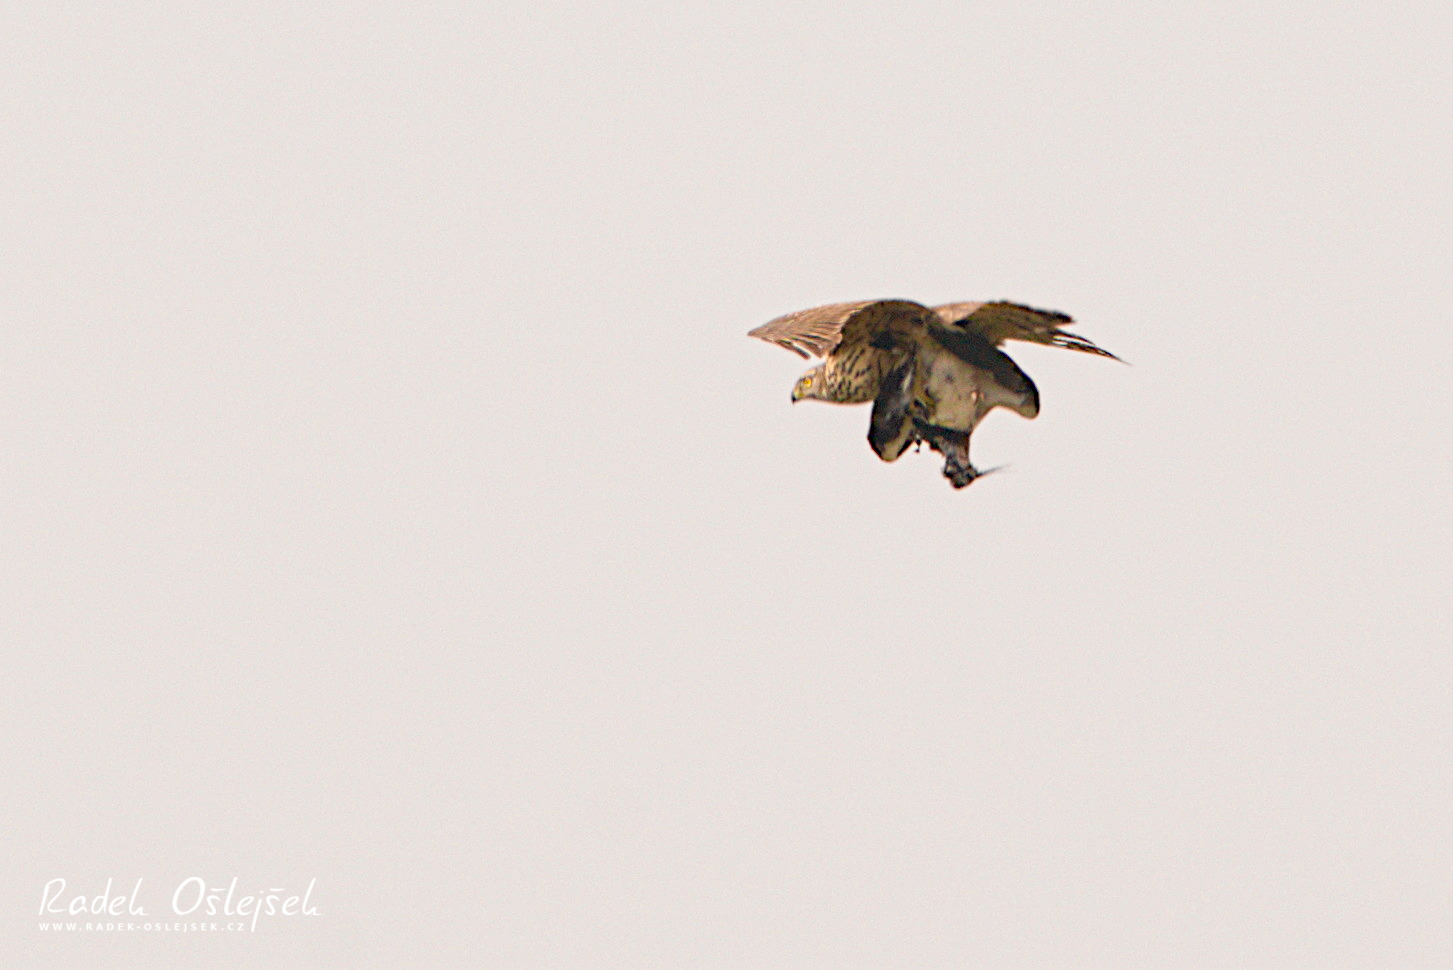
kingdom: Animalia
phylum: Chordata
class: Aves
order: Accipitriformes
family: Accipitridae
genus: Accipiter
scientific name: Accipiter gentilis
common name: Northern goshawk
